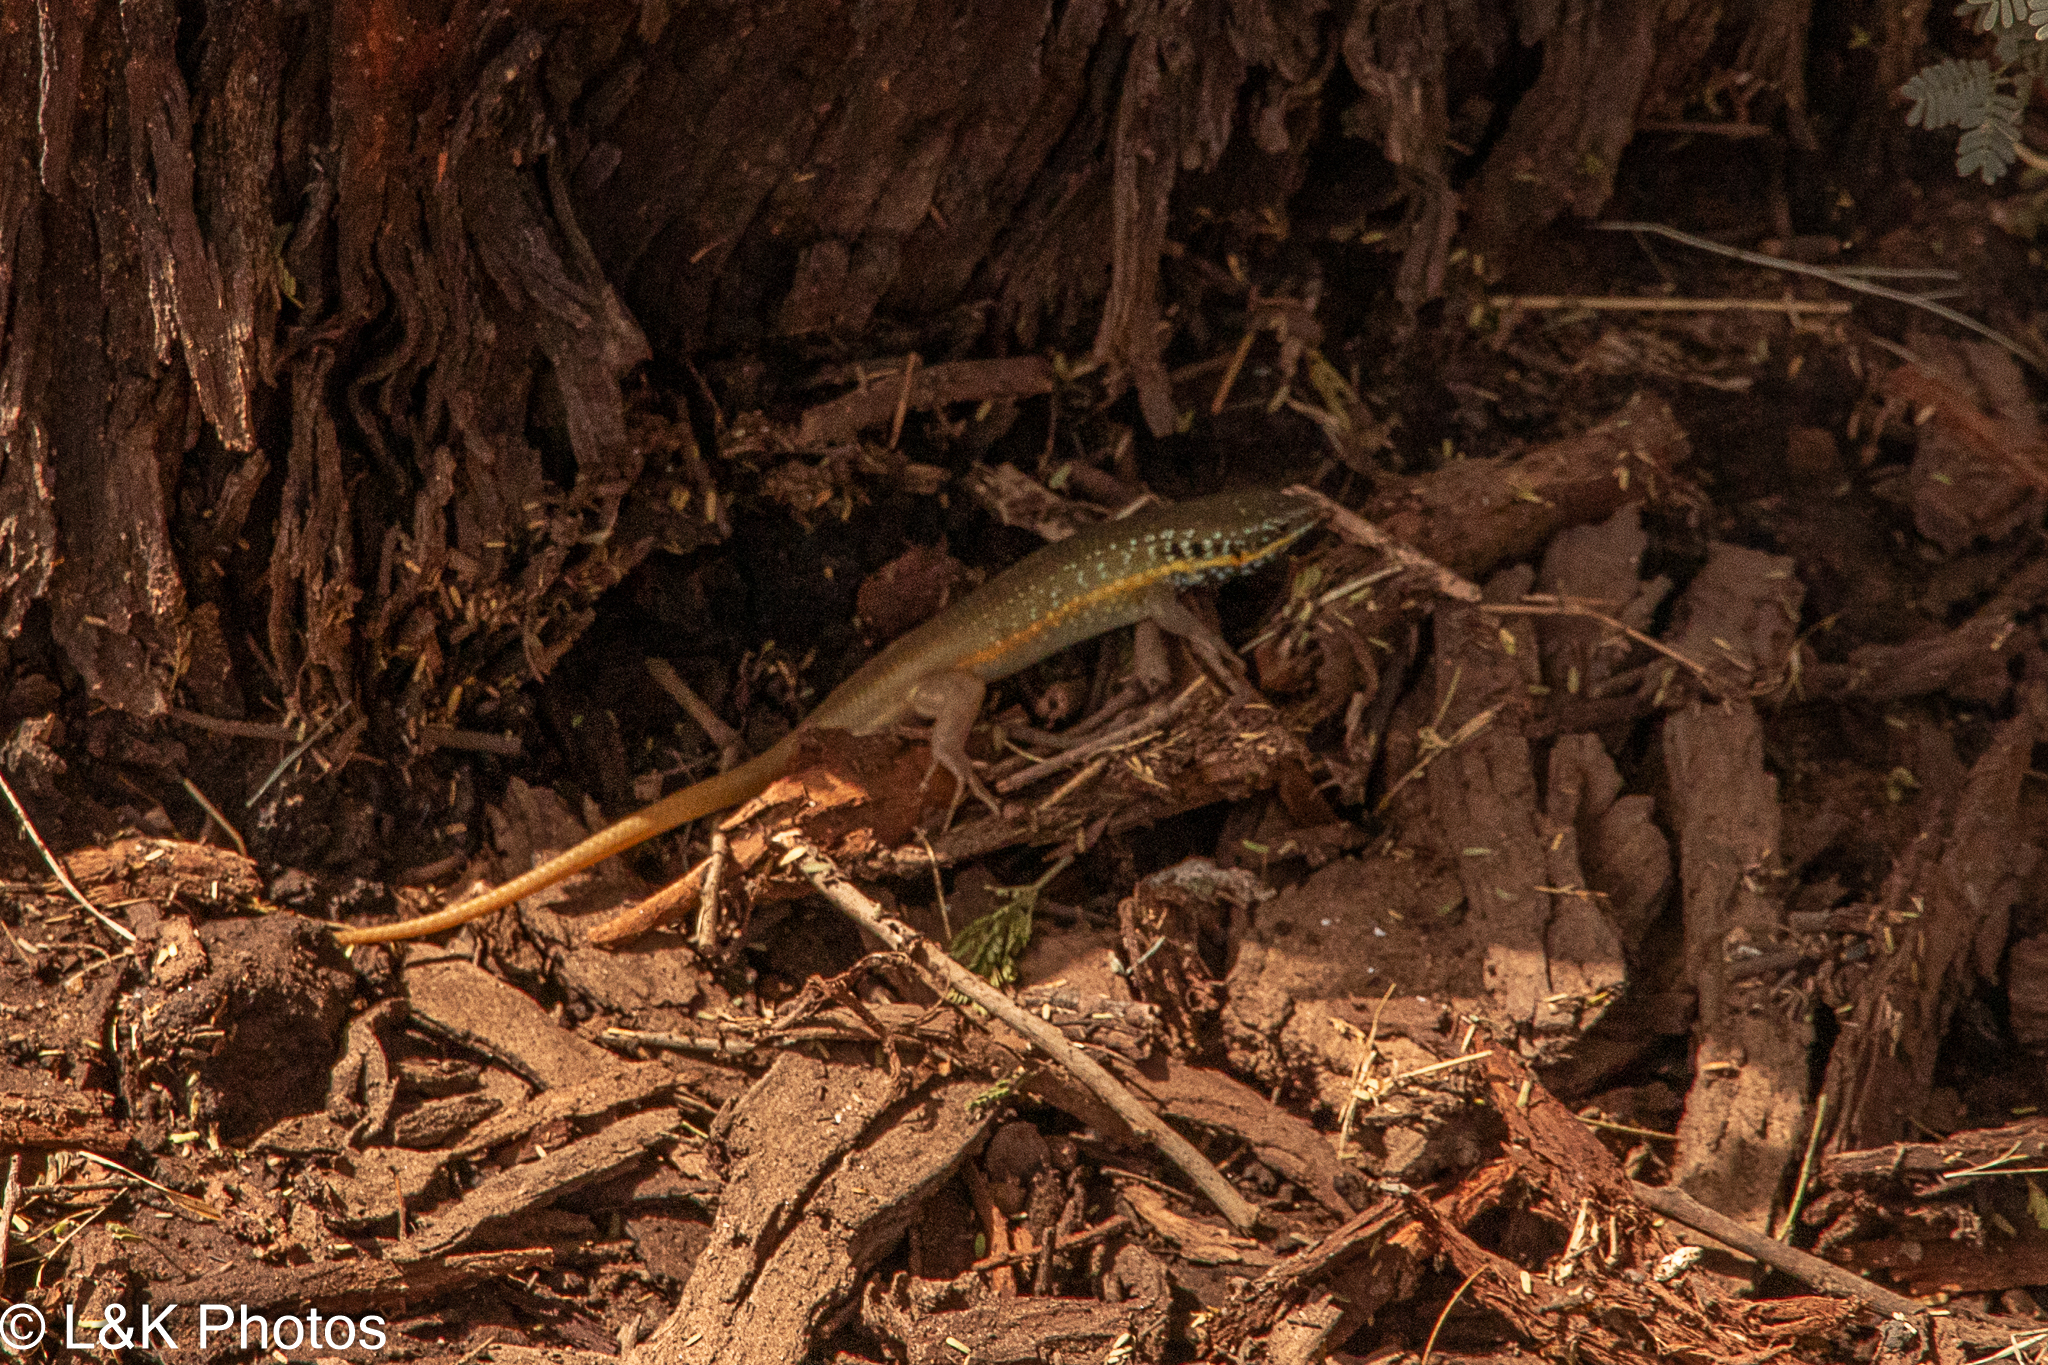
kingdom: Animalia
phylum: Chordata
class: Squamata
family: Scincidae
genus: Trachylepis
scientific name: Trachylepis quinquetaeniata
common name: African five-lined skink
